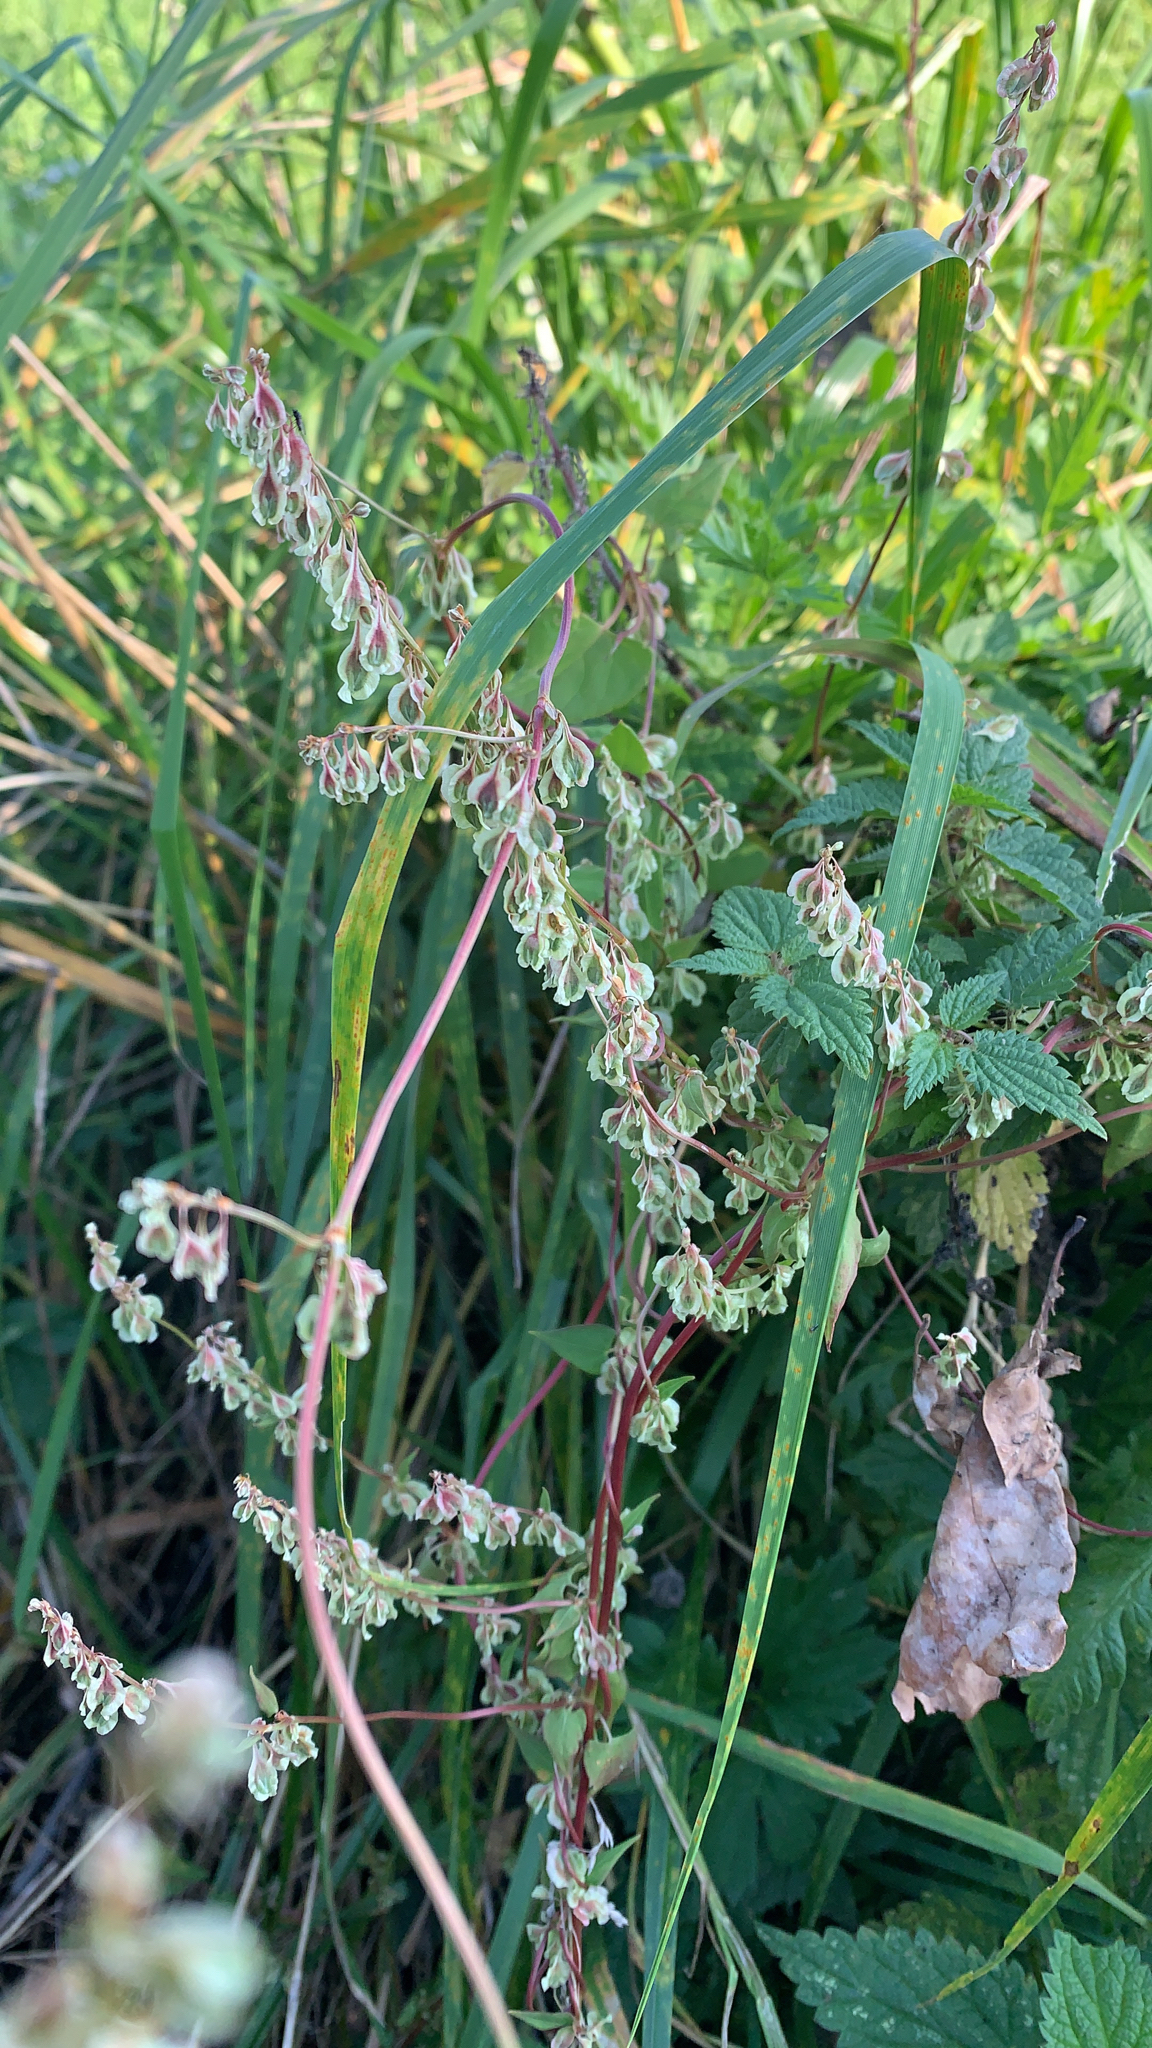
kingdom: Plantae
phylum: Tracheophyta
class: Magnoliopsida
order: Caryophyllales
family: Polygonaceae
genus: Fallopia
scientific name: Fallopia dumetorum
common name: Copse-bindweed
